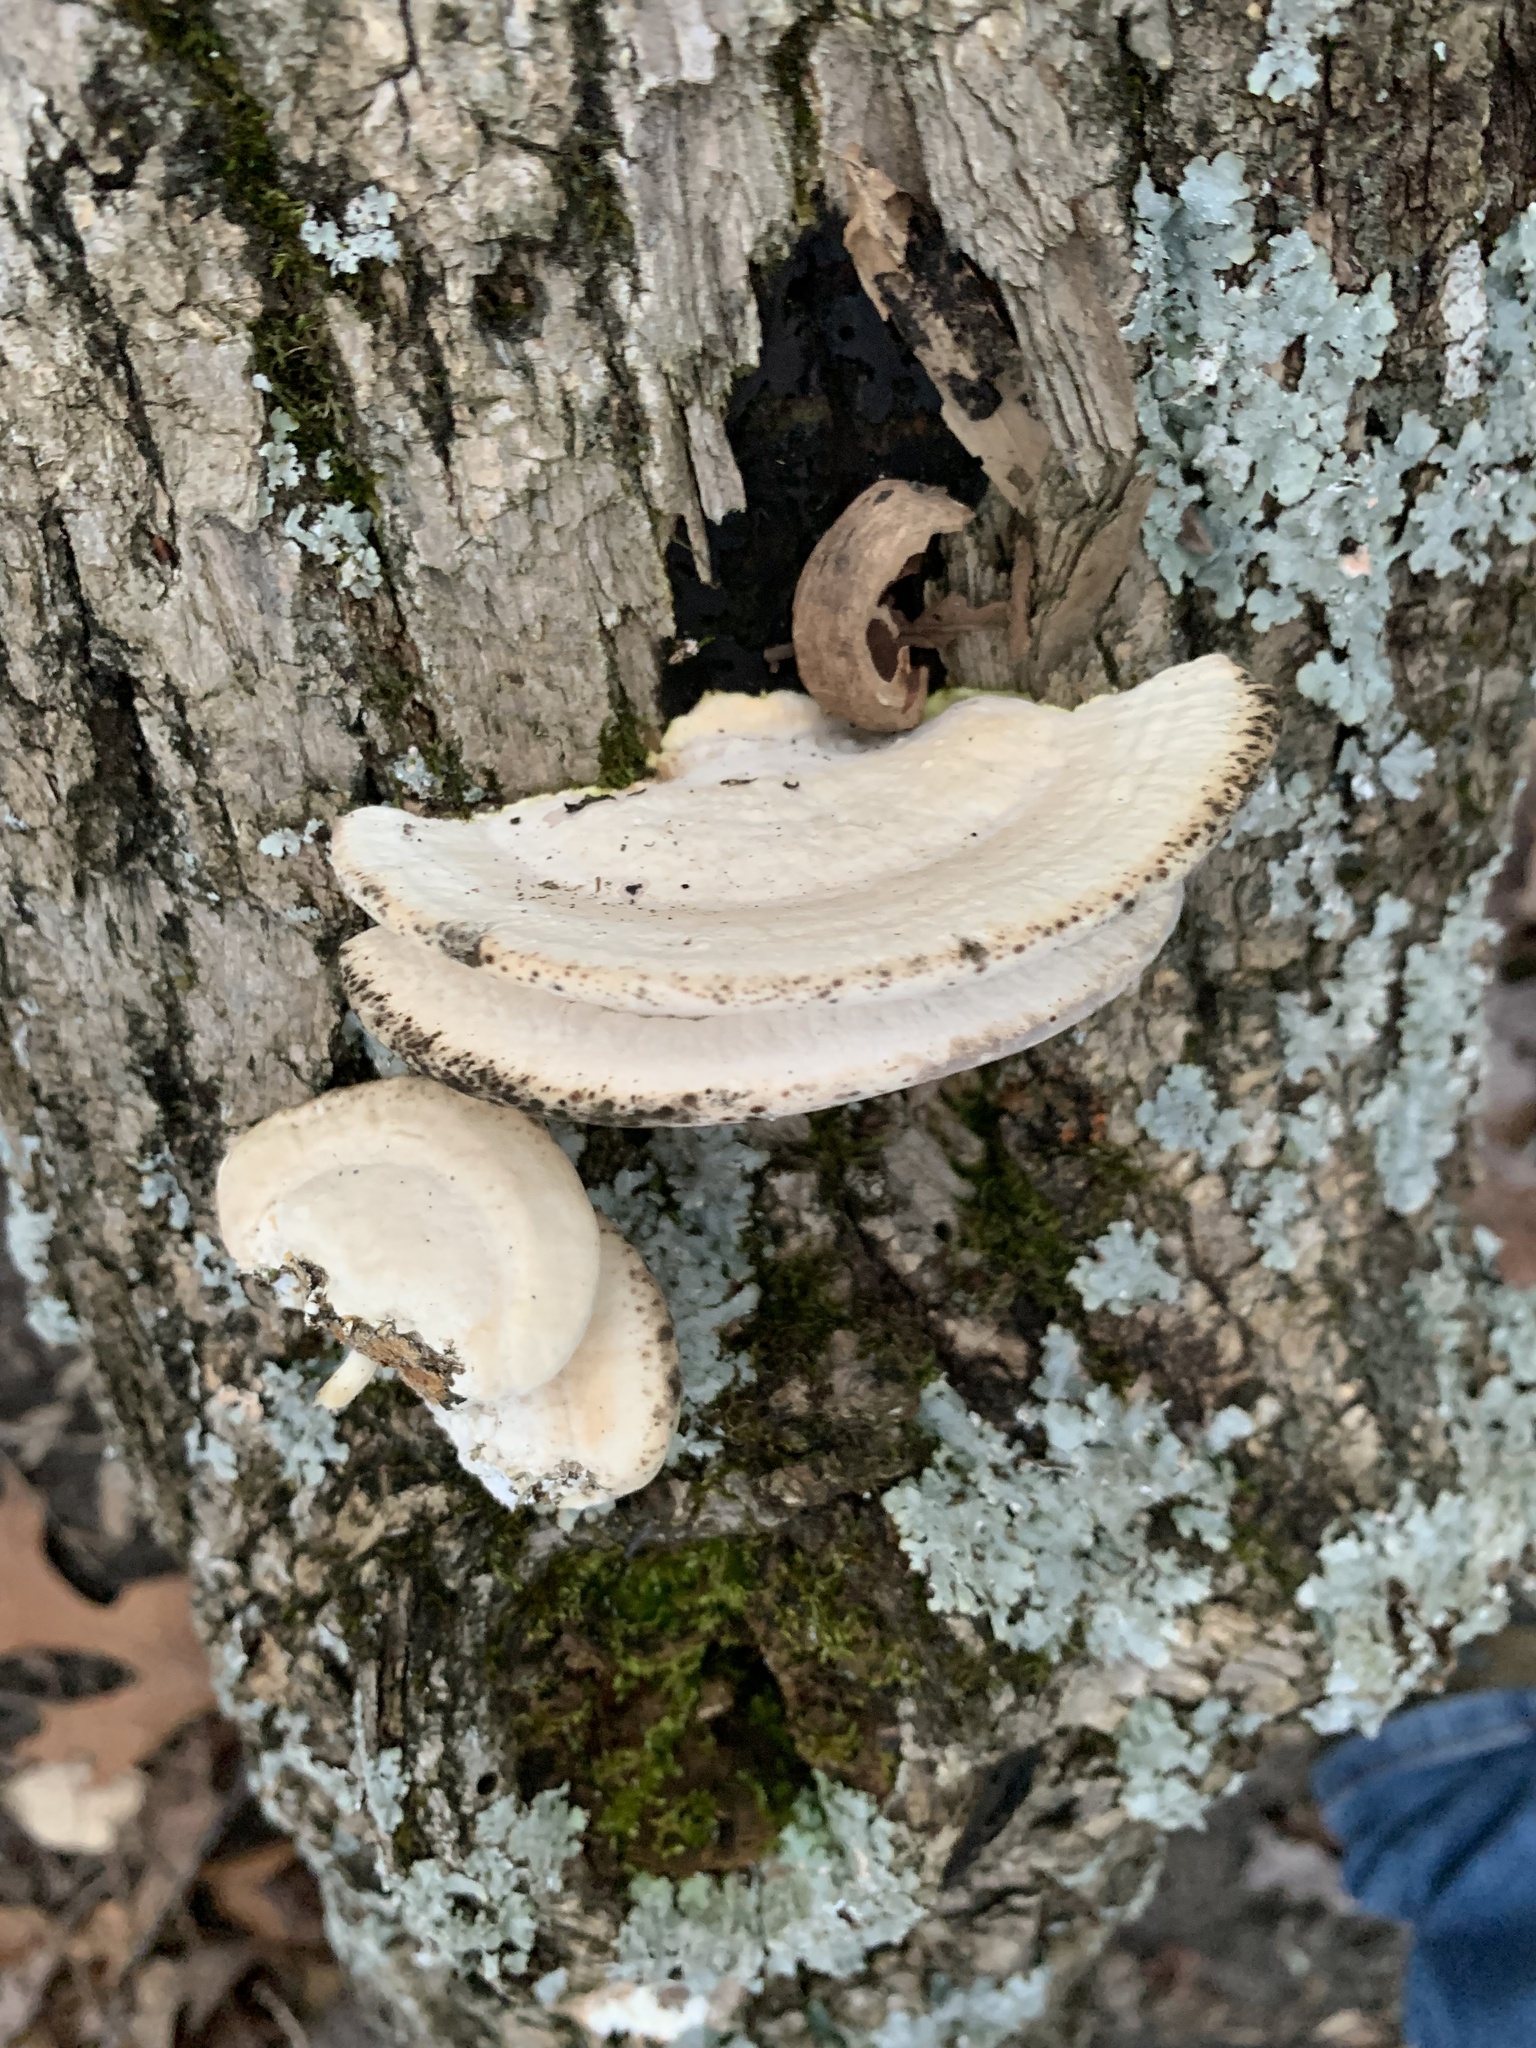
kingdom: Fungi
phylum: Basidiomycota
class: Agaricomycetes
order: Polyporales
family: Polyporaceae
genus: Trametes
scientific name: Trametes lactinea
